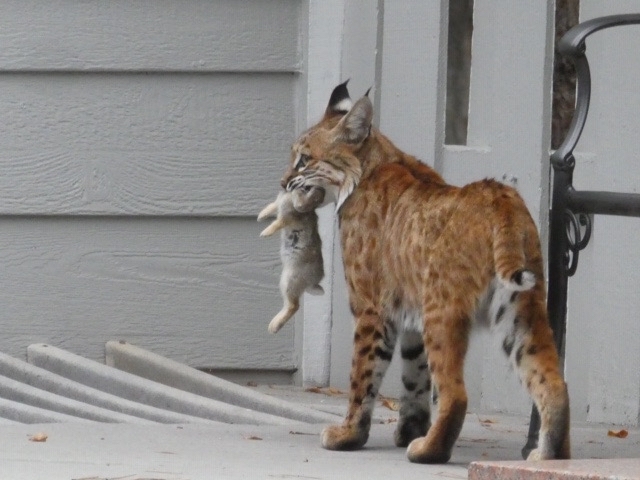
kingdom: Animalia
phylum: Chordata
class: Mammalia
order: Carnivora
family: Felidae
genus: Lynx
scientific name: Lynx rufus
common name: Bobcat
